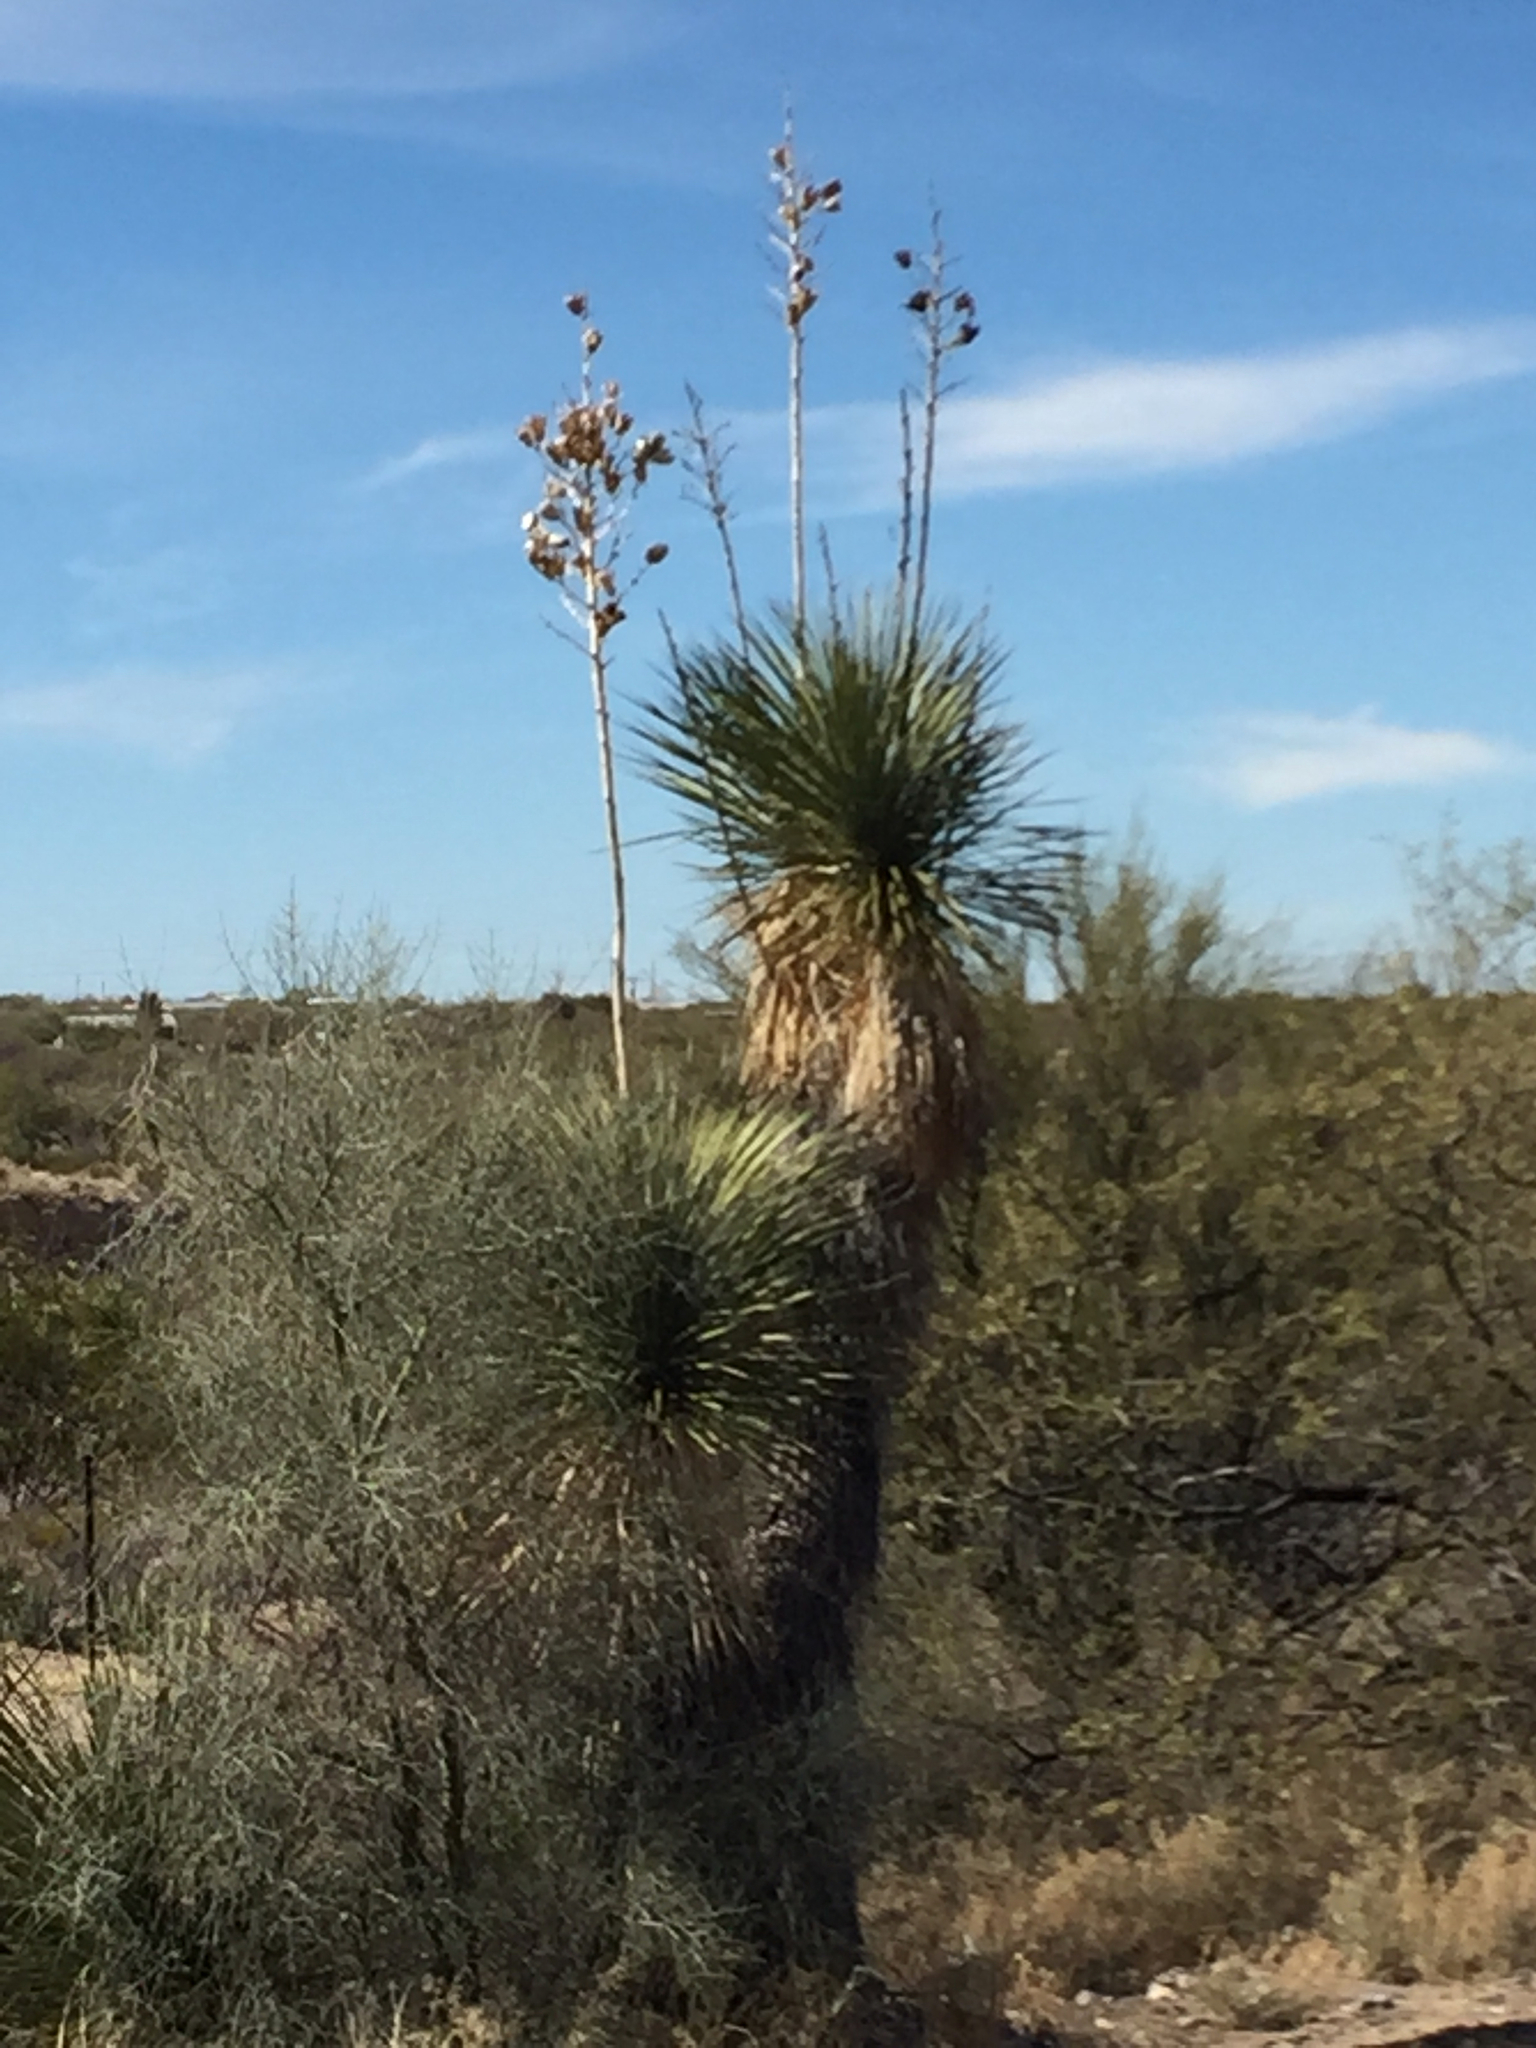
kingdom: Plantae
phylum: Tracheophyta
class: Liliopsida
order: Asparagales
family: Asparagaceae
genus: Yucca
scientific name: Yucca elata
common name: Palmella
